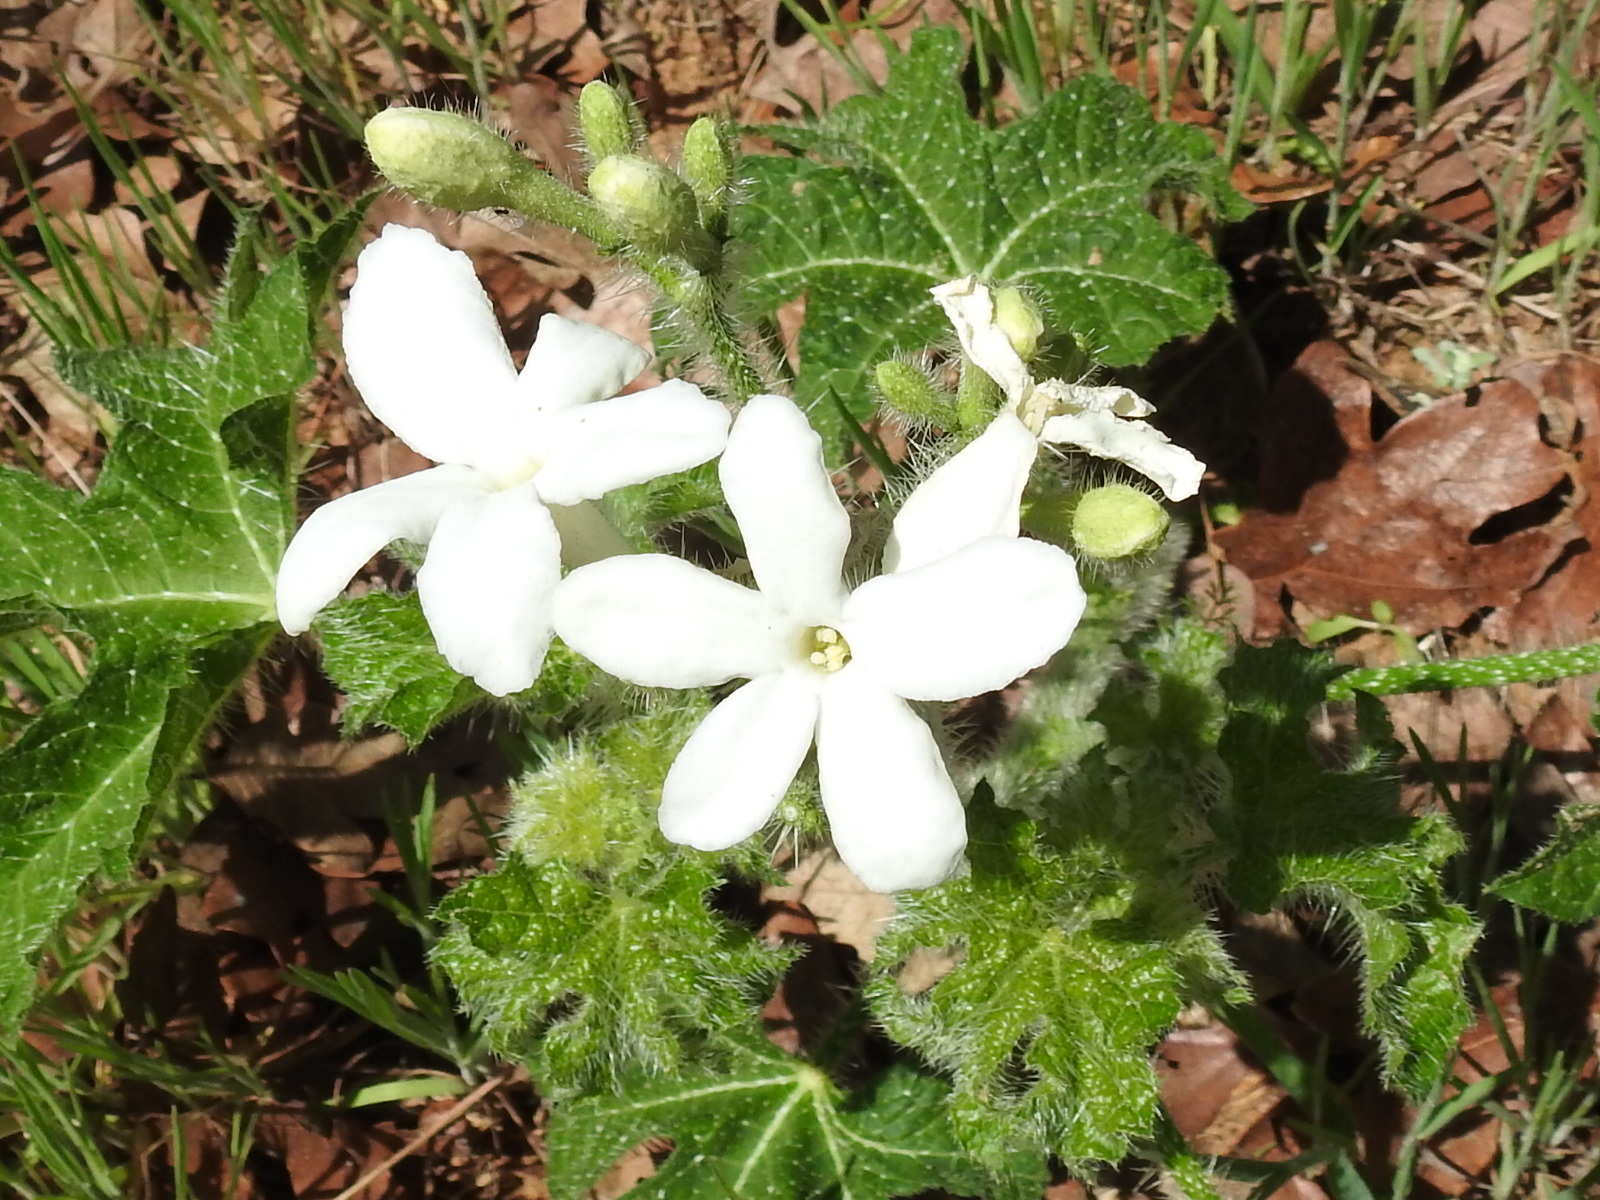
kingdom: Plantae
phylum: Tracheophyta
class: Magnoliopsida
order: Malpighiales
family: Euphorbiaceae
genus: Cnidoscolus
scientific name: Cnidoscolus texanus
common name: Texas bull-nettle
